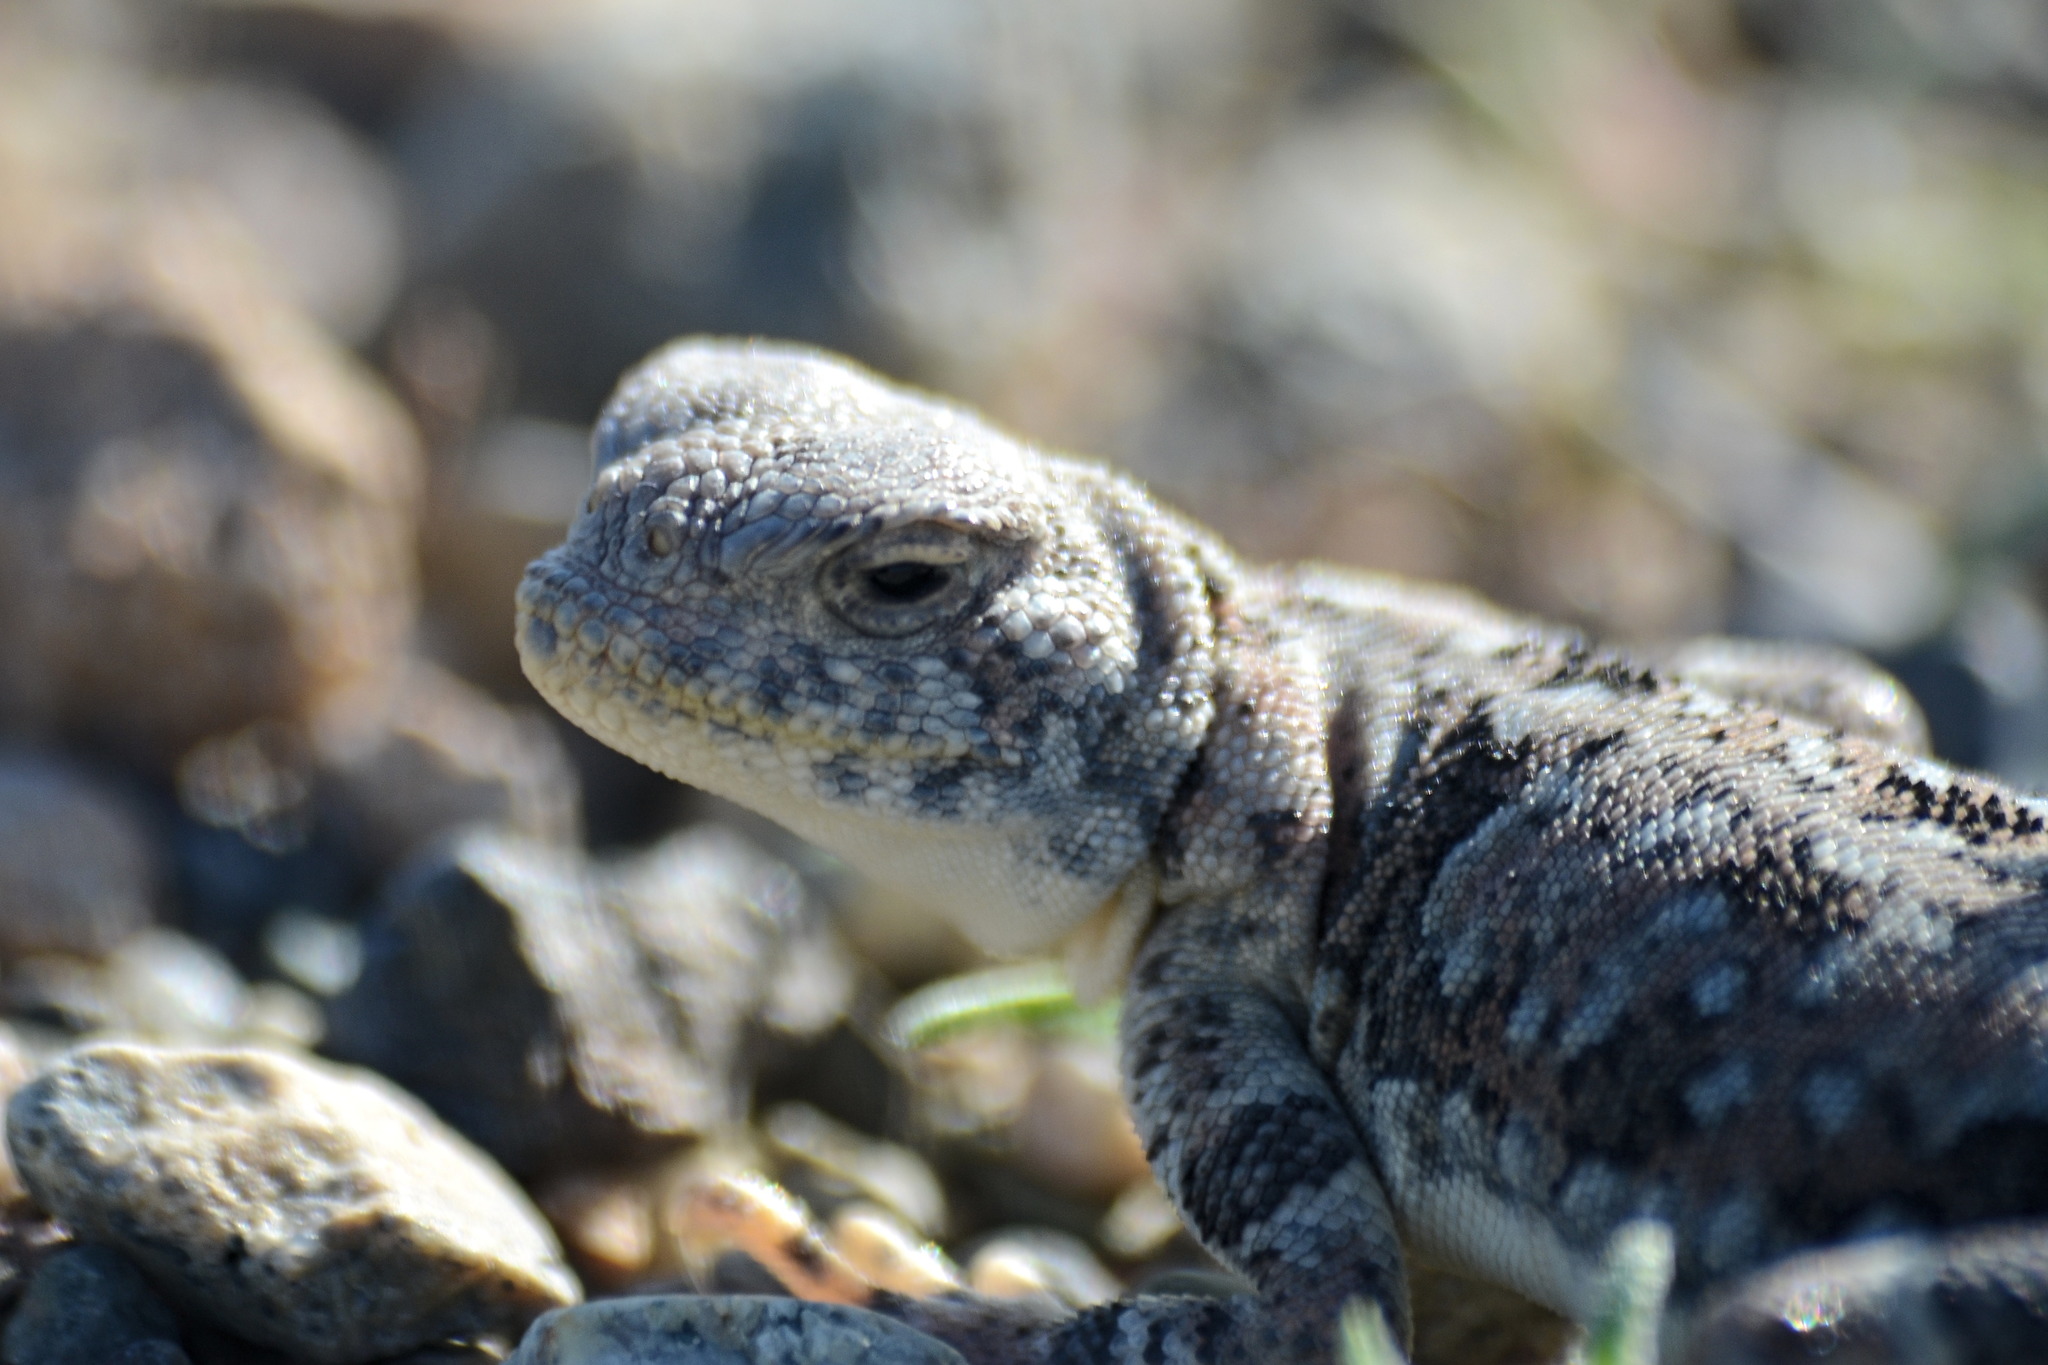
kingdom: Animalia
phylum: Chordata
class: Squamata
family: Agamidae
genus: Phrynocephalus
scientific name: Phrynocephalus versicolor
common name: Tuvan toad-headed agama
